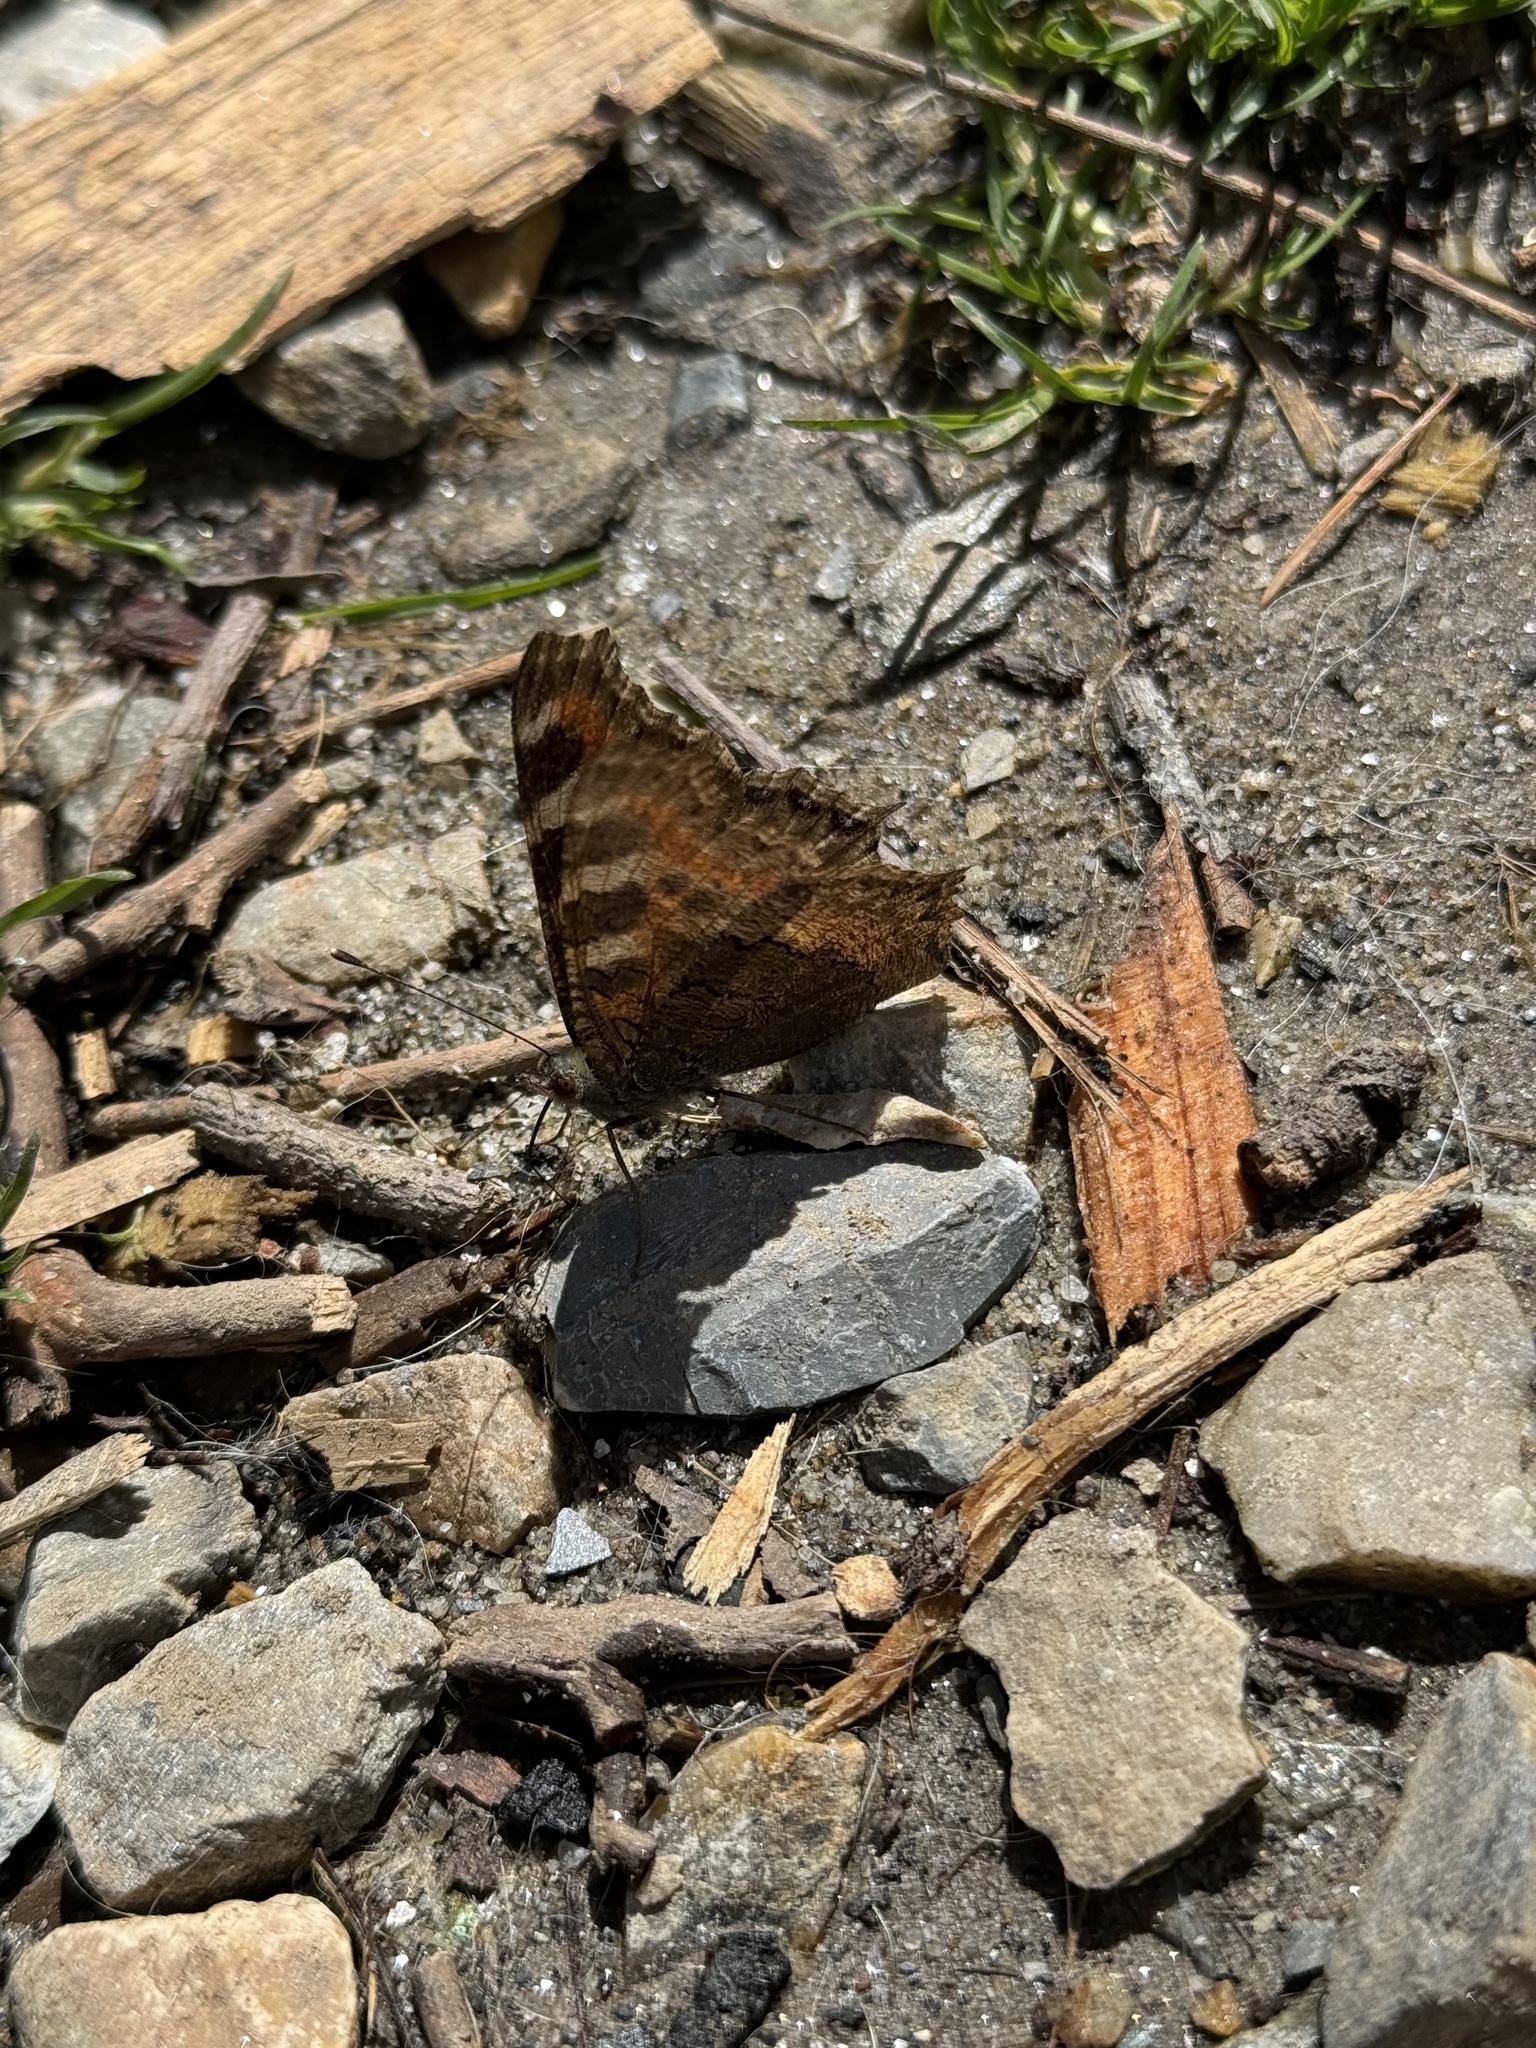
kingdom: Animalia
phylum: Arthropoda
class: Insecta
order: Lepidoptera
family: Nymphalidae
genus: Aglais
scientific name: Aglais caschmirensis
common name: Indian tortoiseshell
